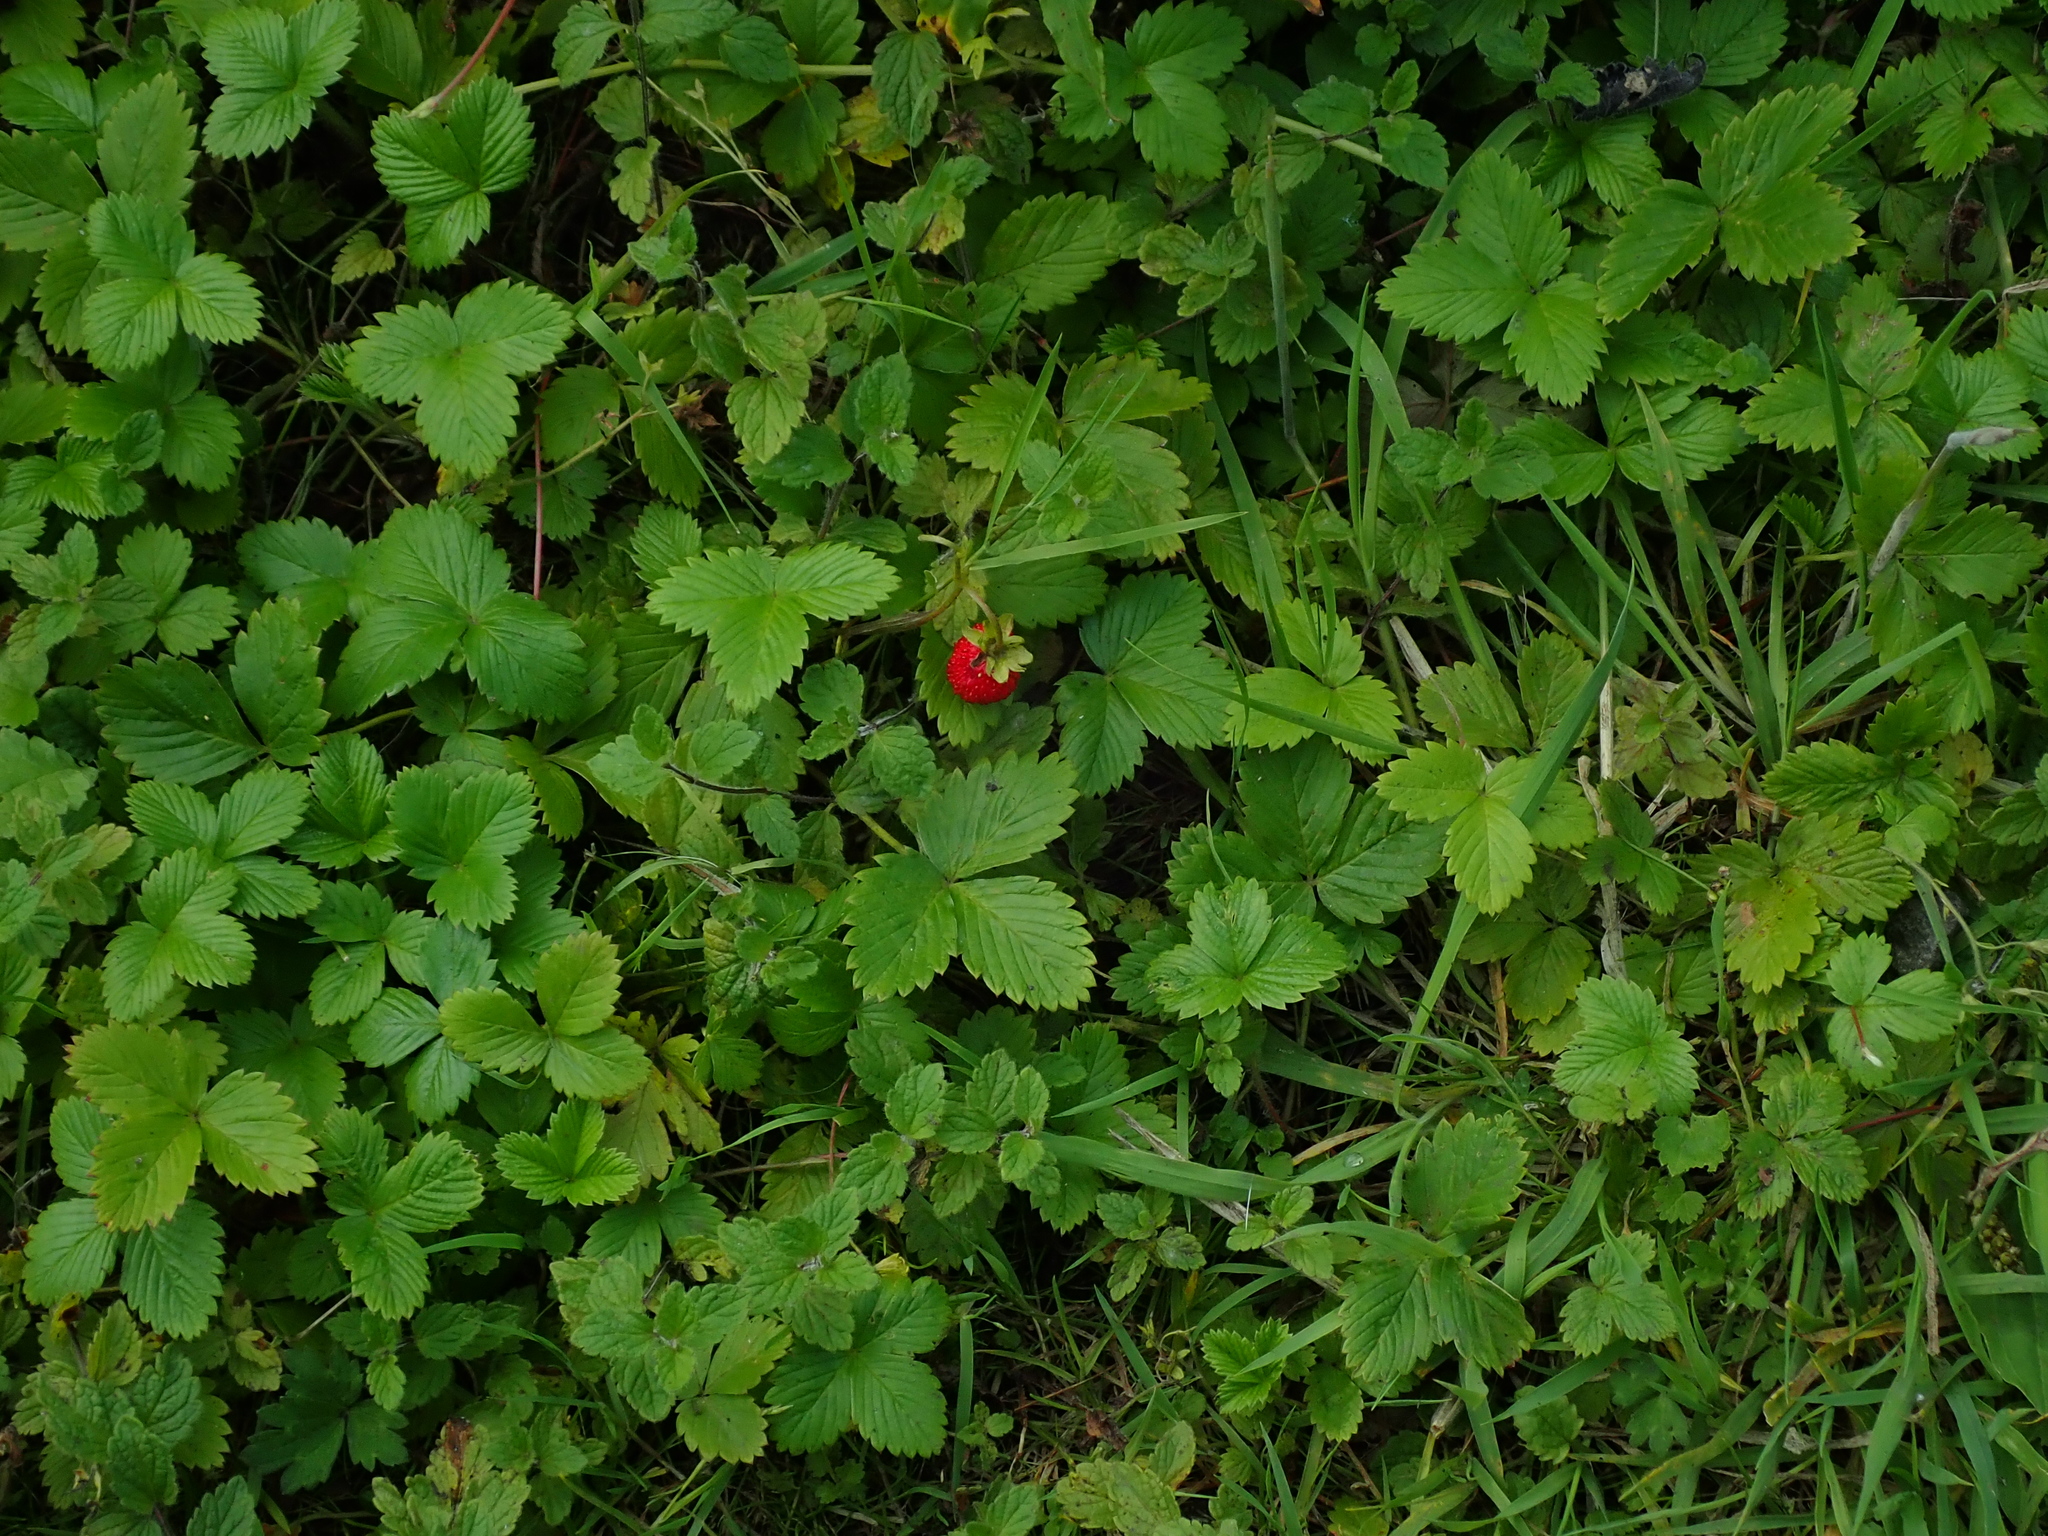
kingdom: Plantae
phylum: Tracheophyta
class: Magnoliopsida
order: Rosales
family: Rosaceae
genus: Fragaria
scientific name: Fragaria vesca
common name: Wild strawberry
